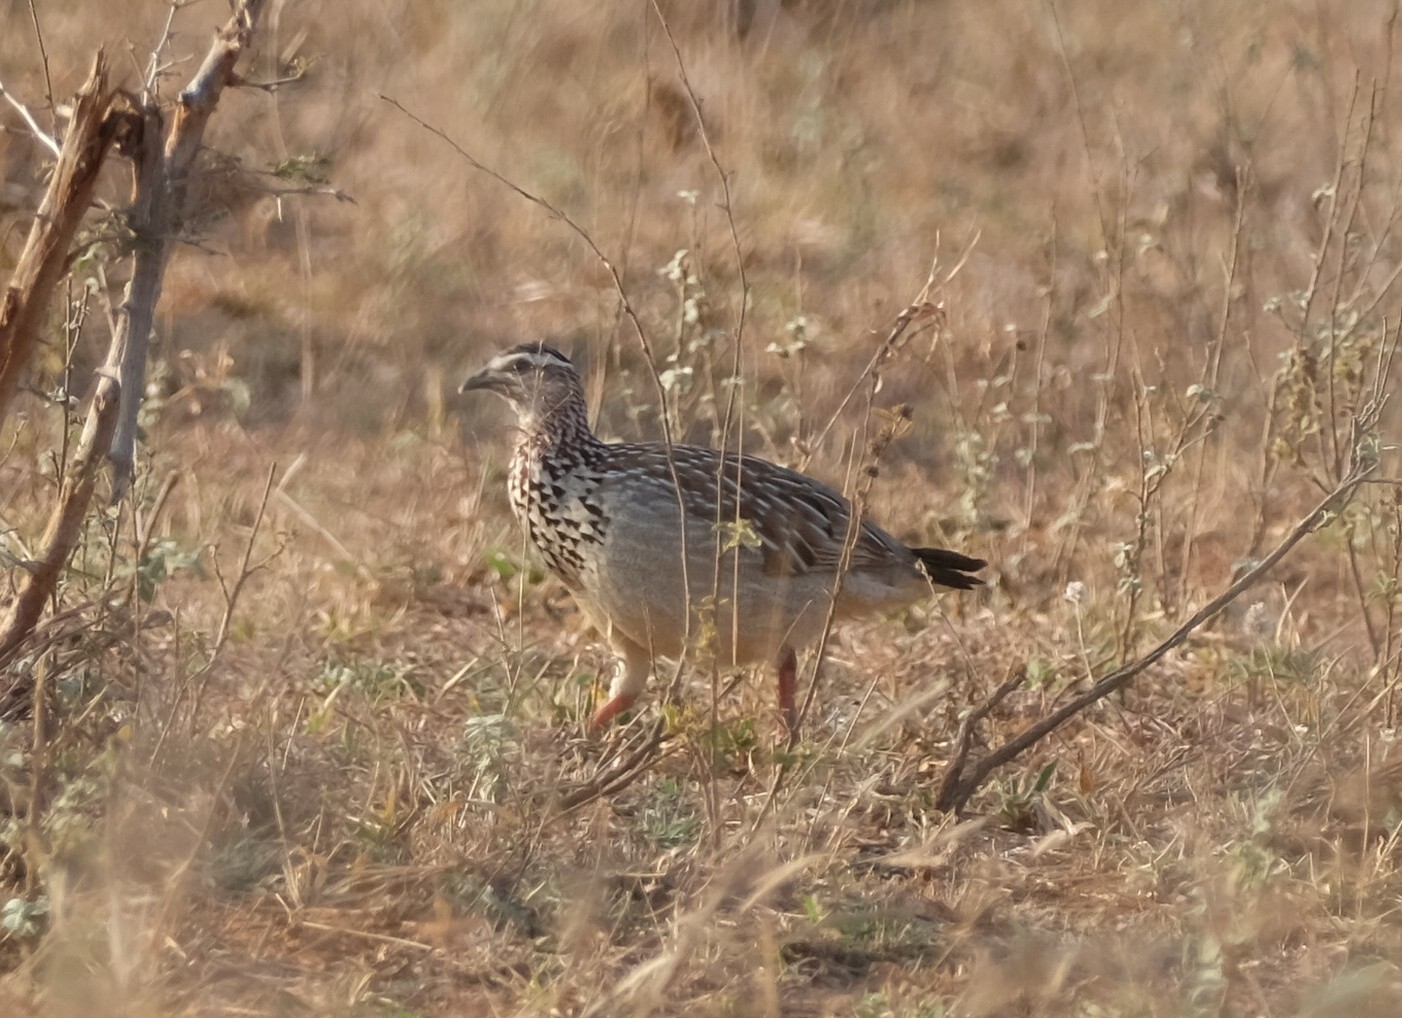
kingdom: Animalia
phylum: Chordata
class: Aves
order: Galliformes
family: Phasianidae
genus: Ortygornis
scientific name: Ortygornis sephaena
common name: Crested francolin
